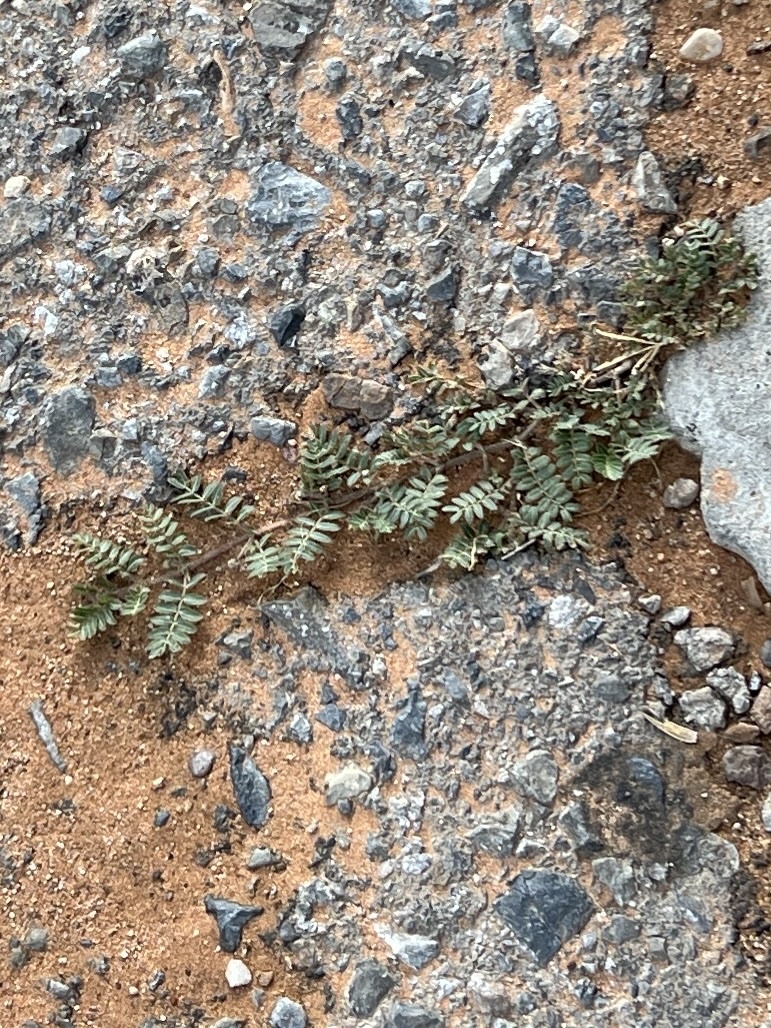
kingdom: Plantae
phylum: Tracheophyta
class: Magnoliopsida
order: Zygophyllales
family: Zygophyllaceae
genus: Tribulus
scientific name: Tribulus terrestris
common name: Puncturevine
